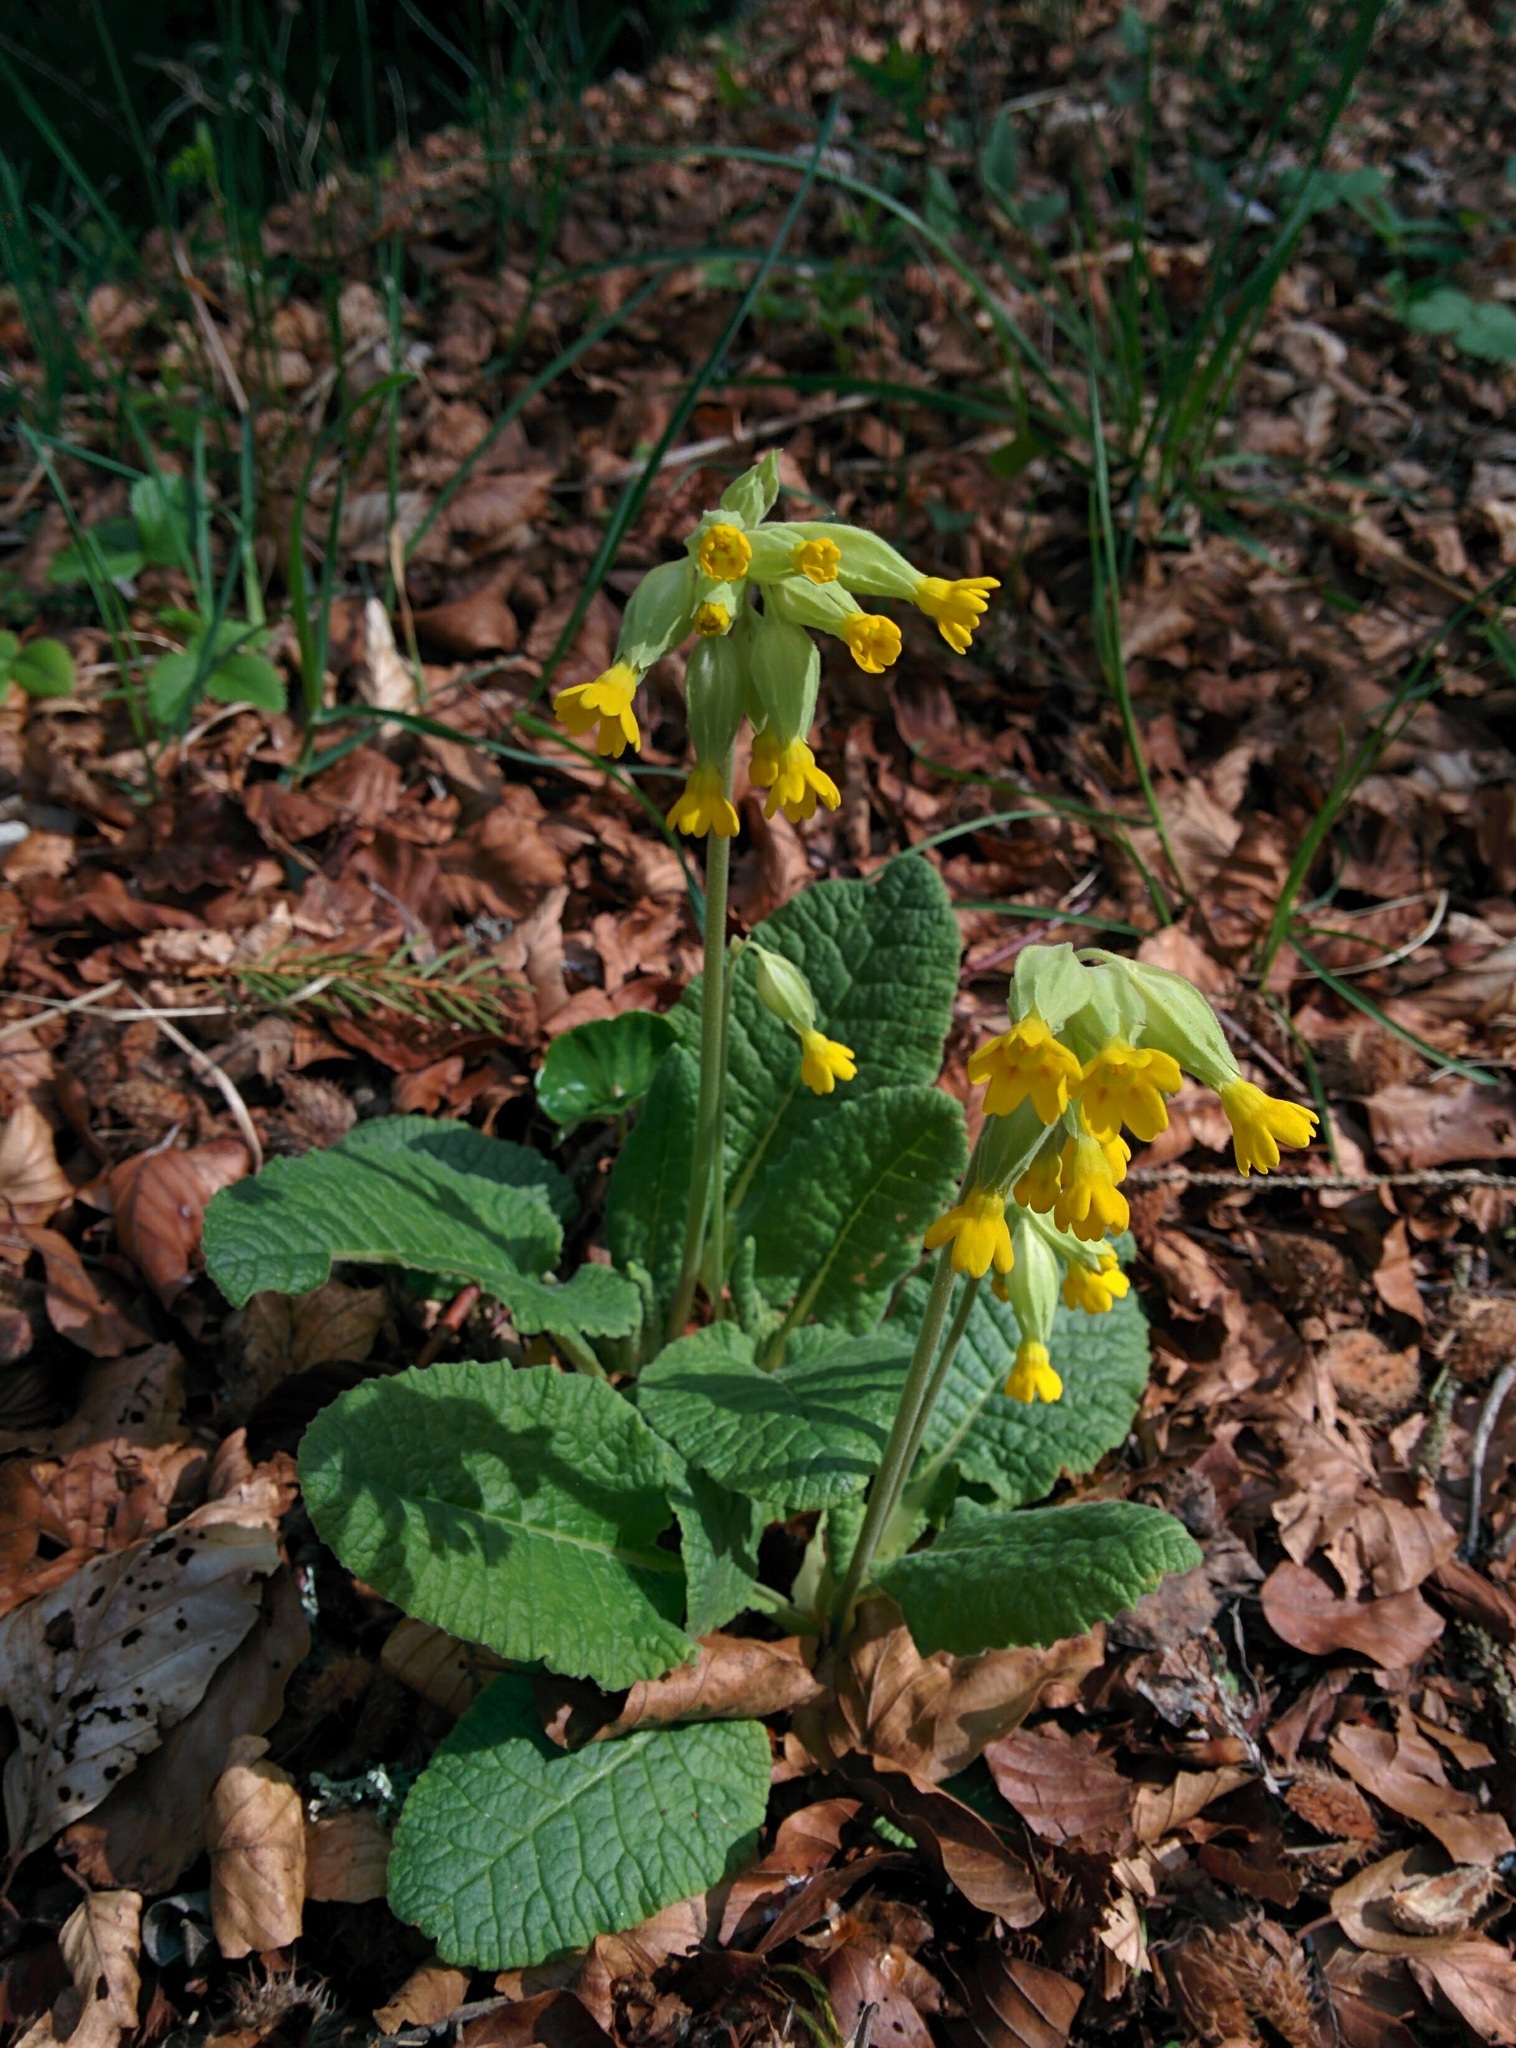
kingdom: Plantae
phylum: Tracheophyta
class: Magnoliopsida
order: Ericales
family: Primulaceae
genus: Primula
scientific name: Primula veris
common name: Cowslip
